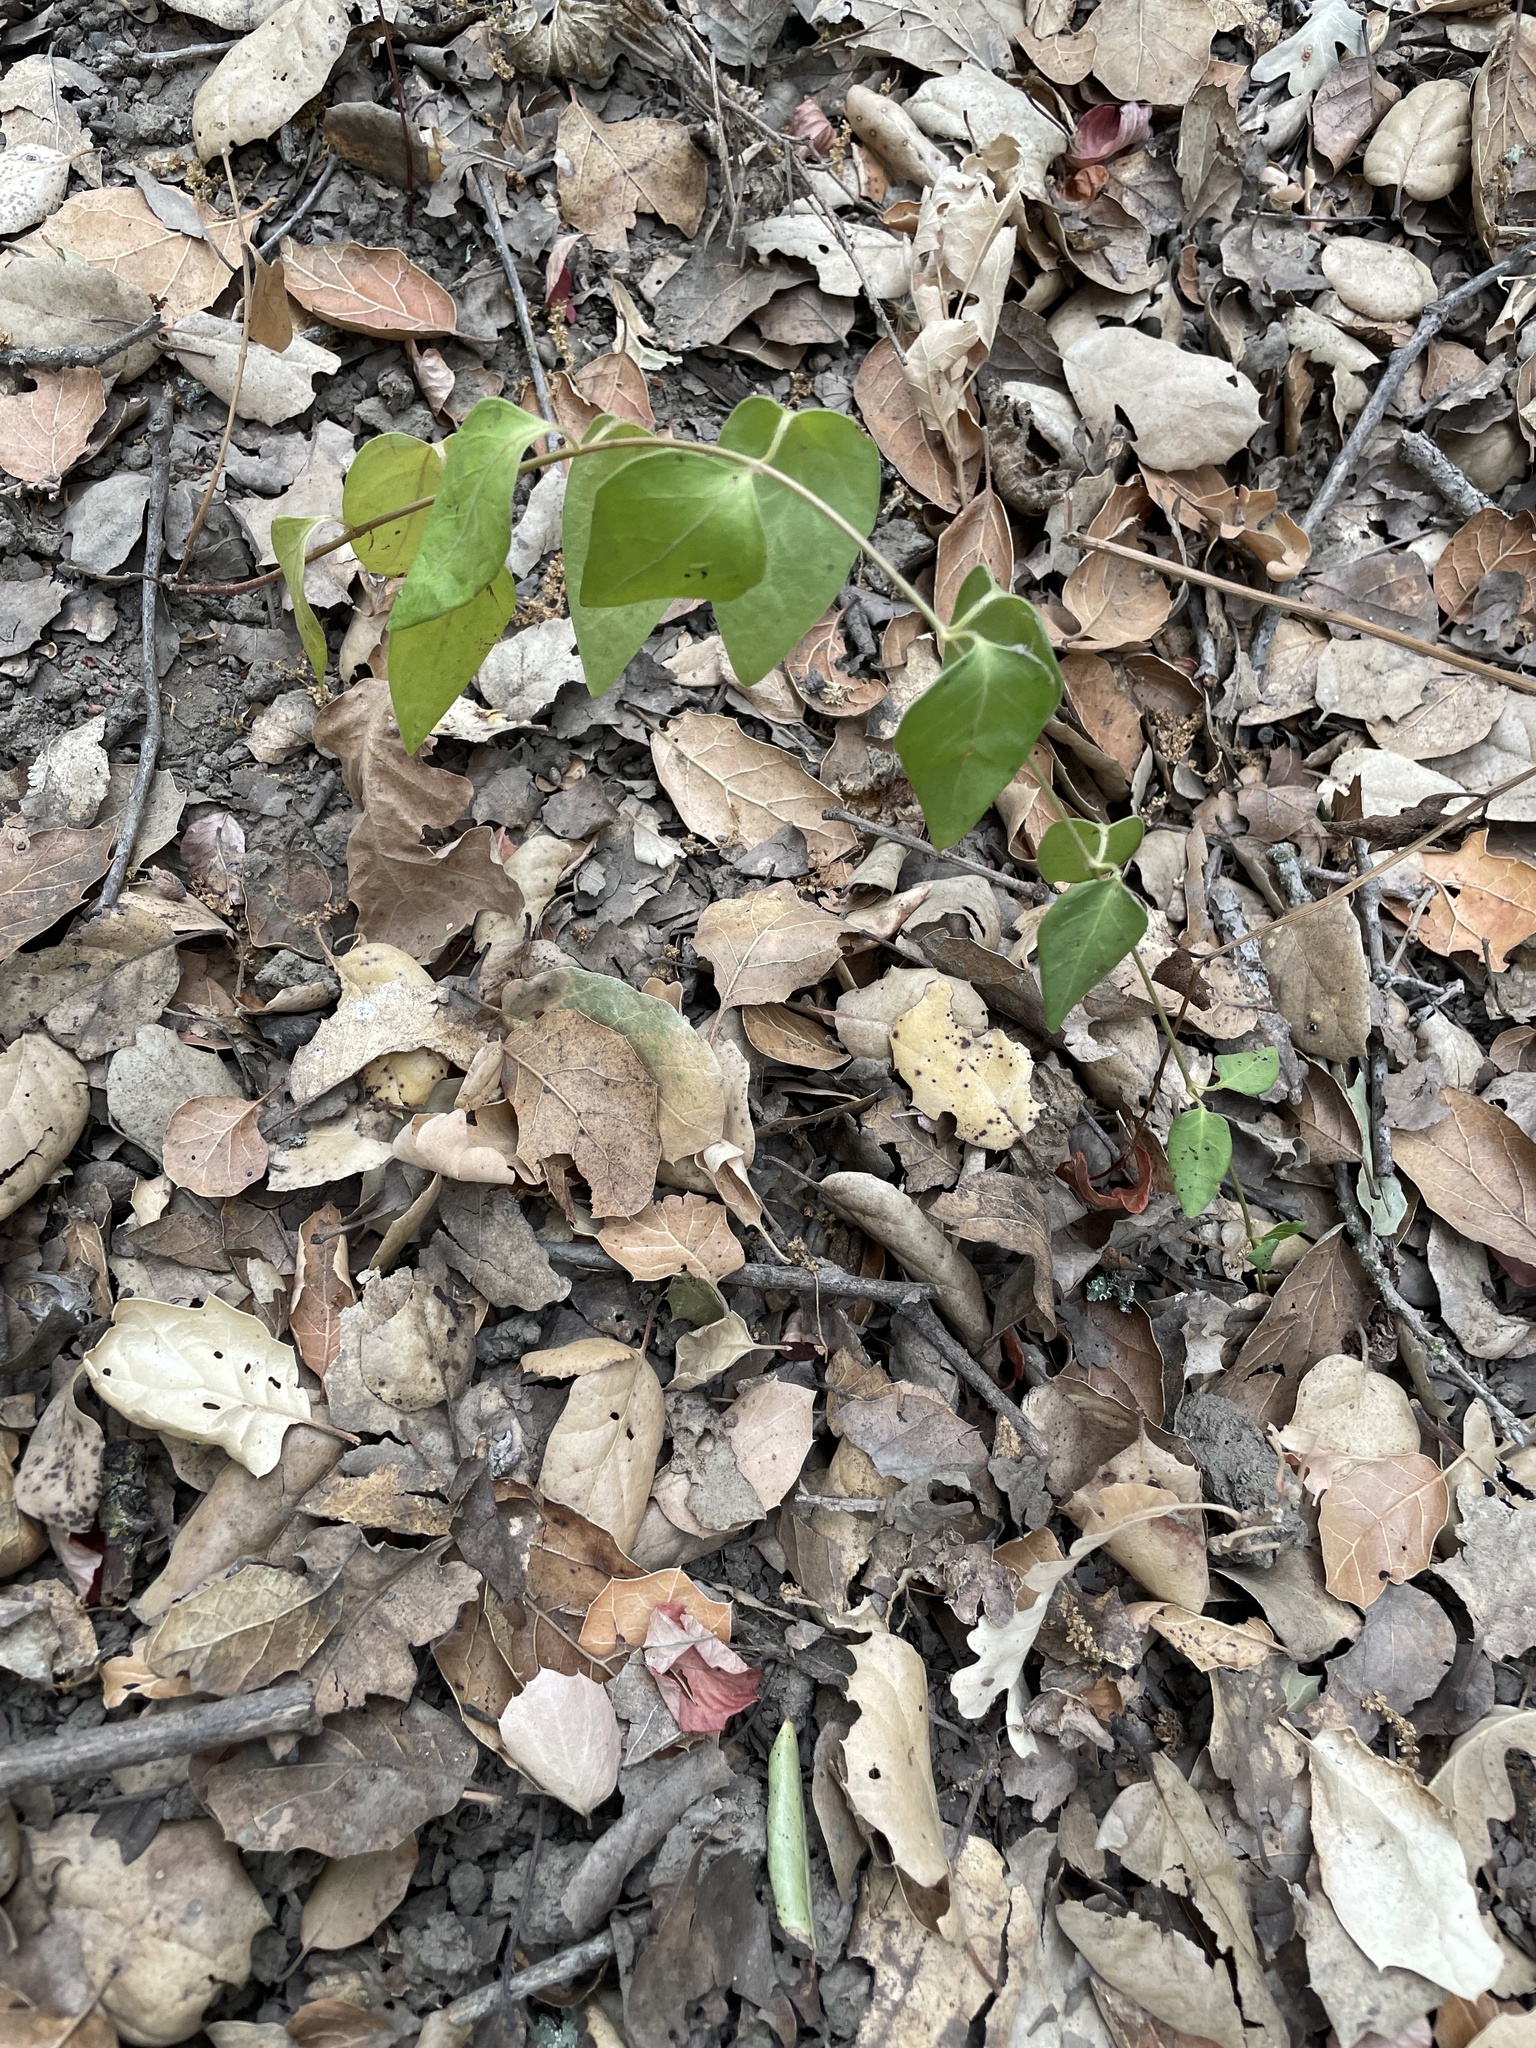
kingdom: Plantae
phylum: Tracheophyta
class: Magnoliopsida
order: Gentianales
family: Apocynaceae
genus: Vinca
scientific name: Vinca major
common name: Greater periwinkle
